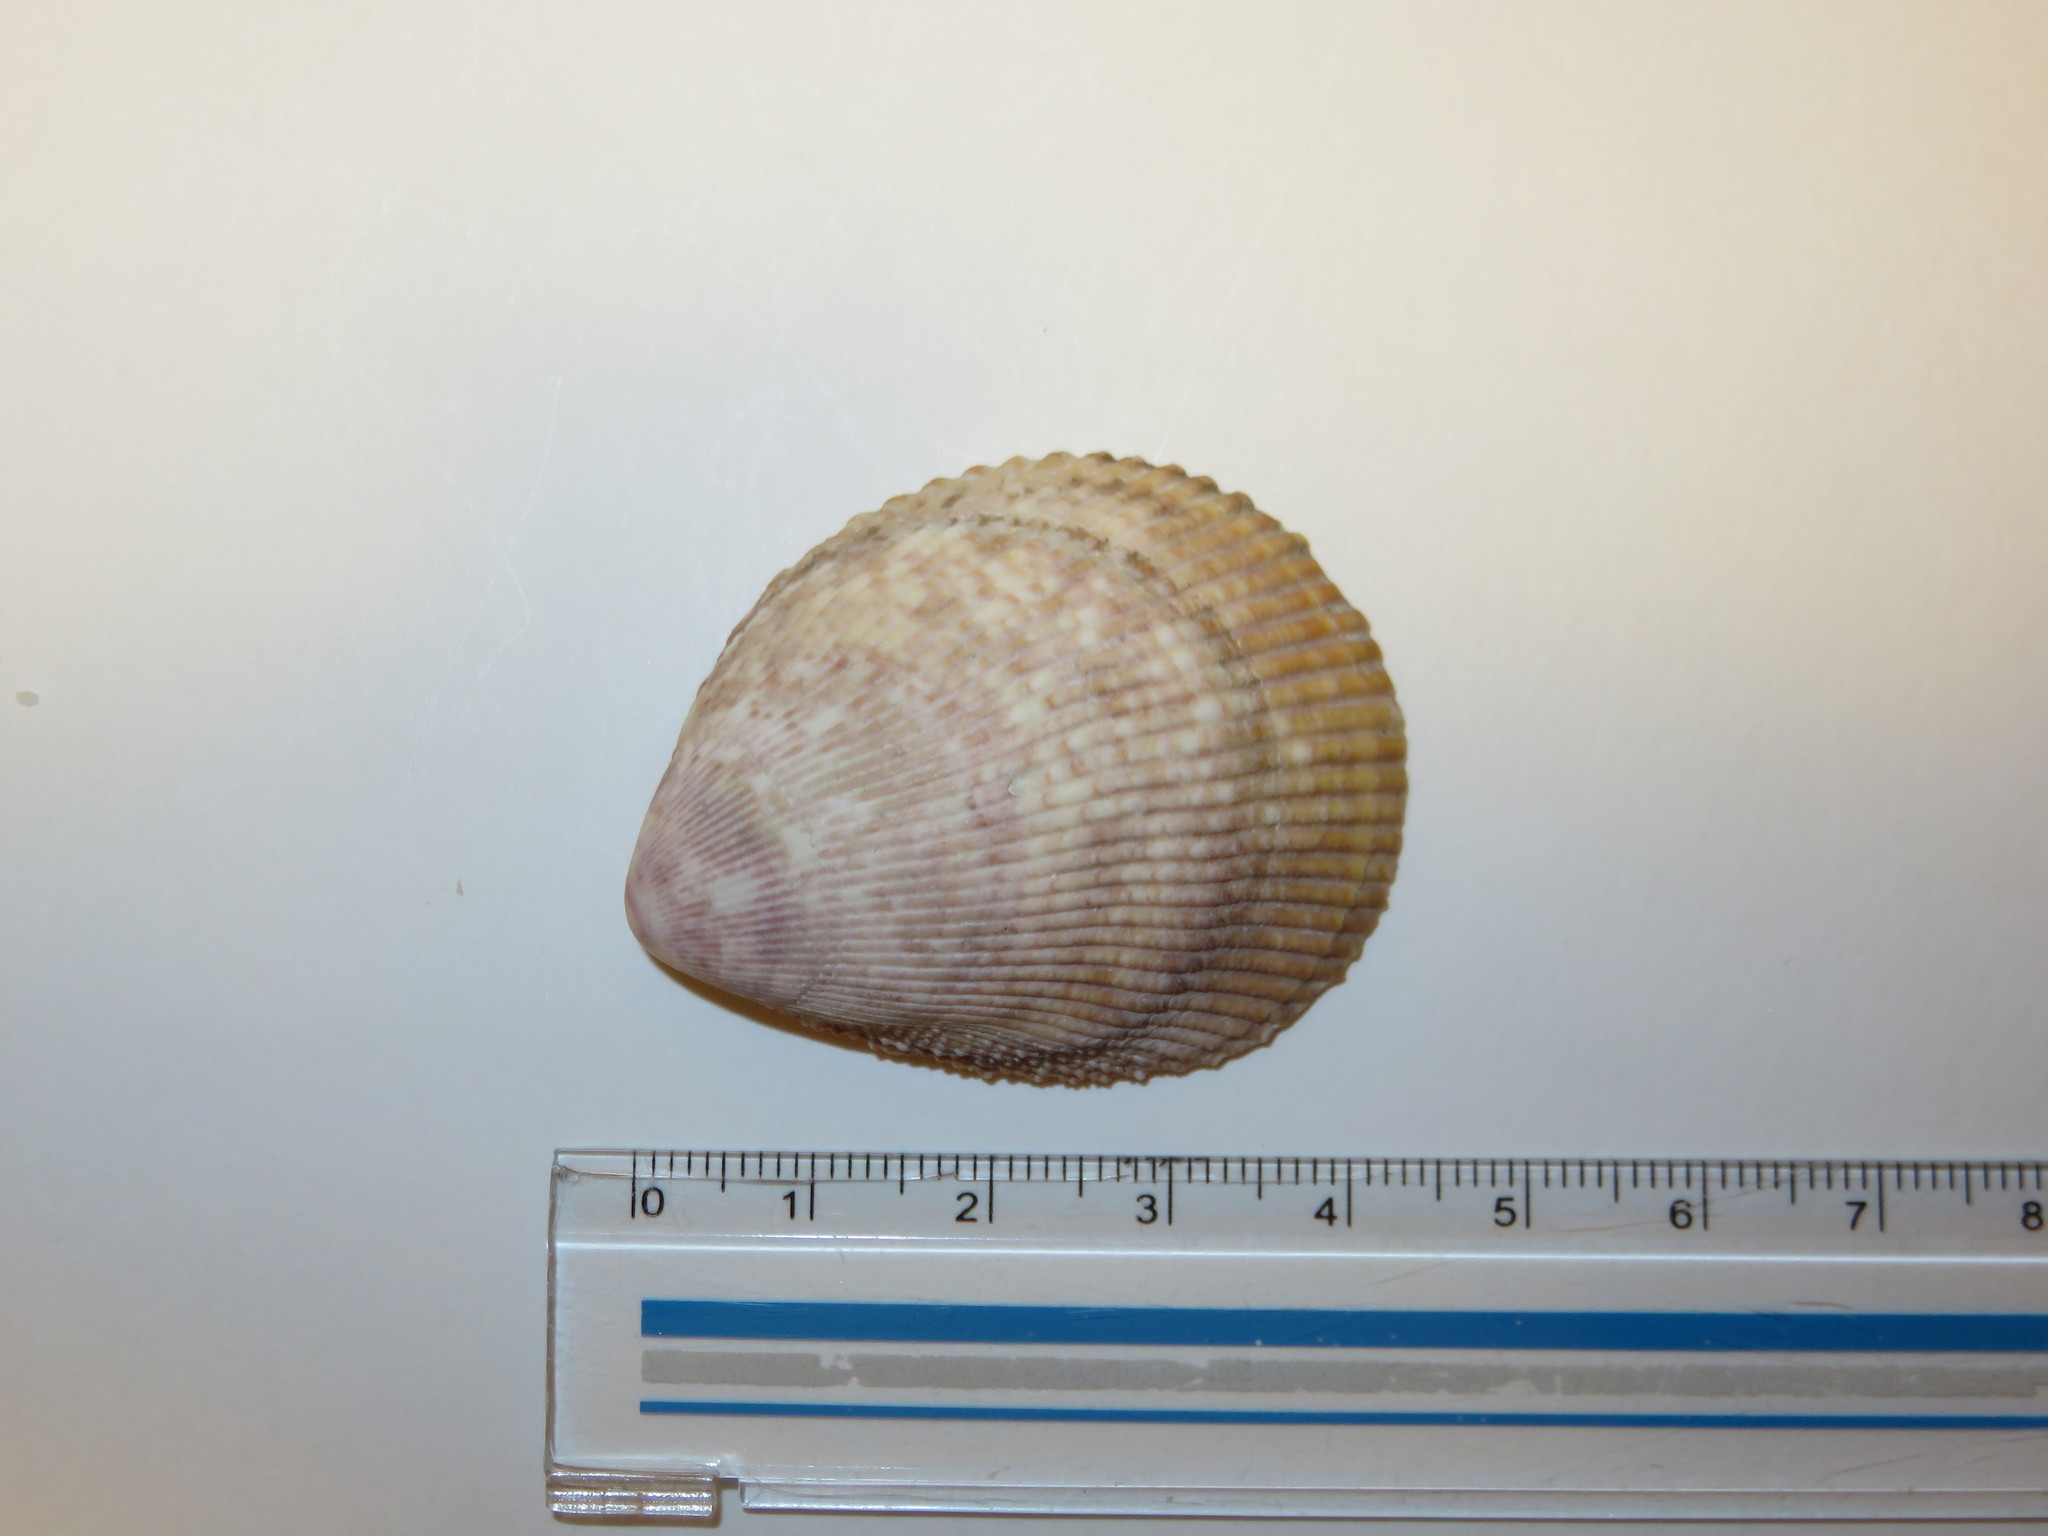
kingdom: Animalia
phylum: Mollusca
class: Bivalvia
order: Cardiida
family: Cardiidae
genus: Acrosterigma
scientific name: Acrosterigma maculosum
